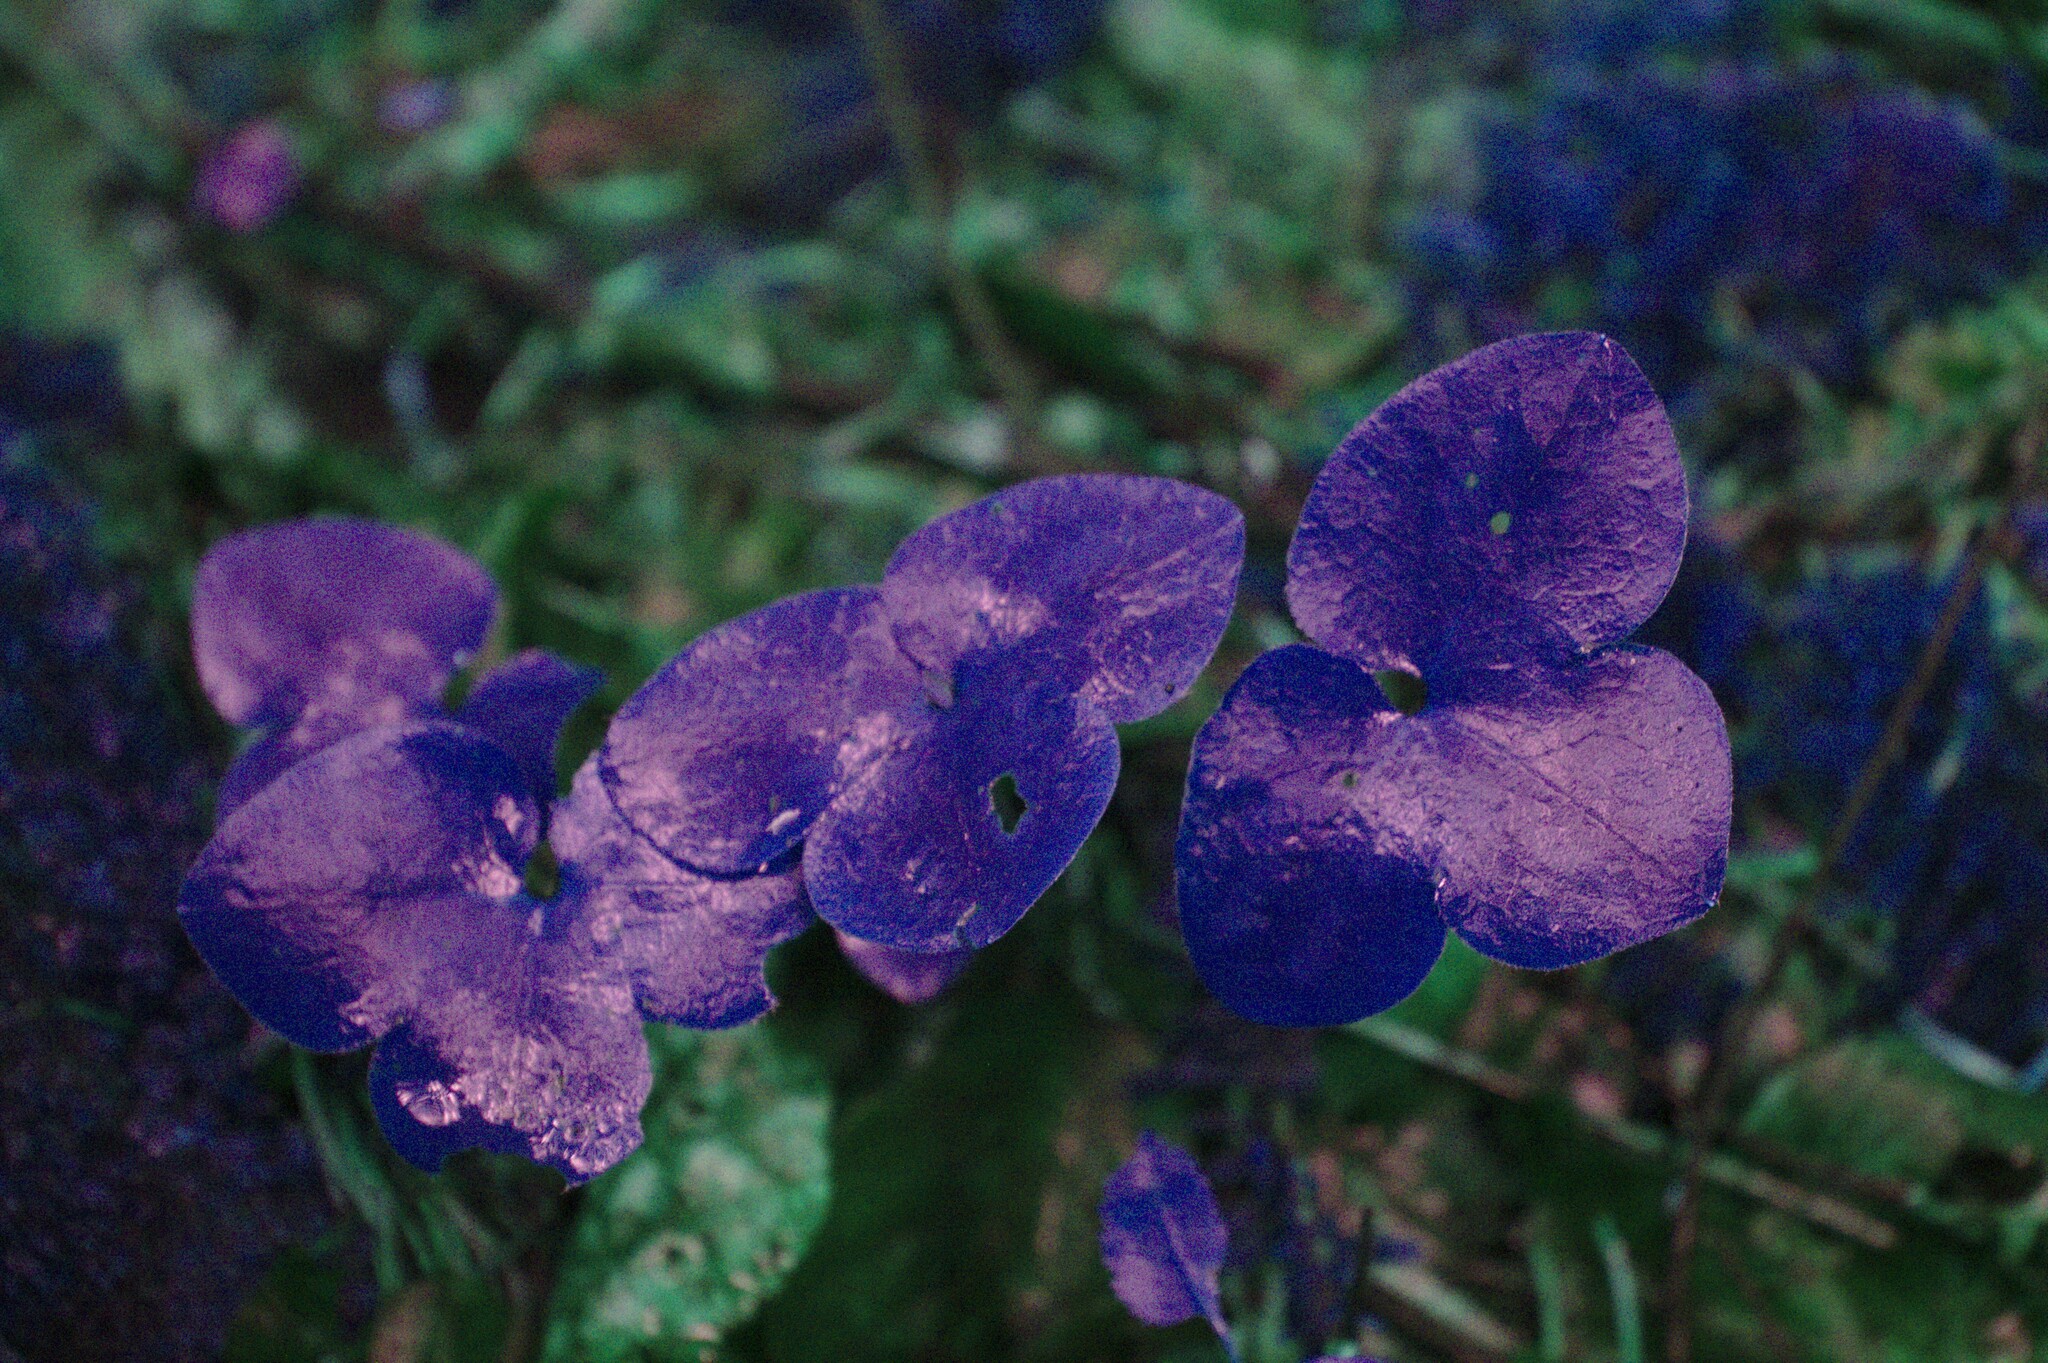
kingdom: Plantae
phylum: Tracheophyta
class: Magnoliopsida
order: Ranunculales
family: Ranunculaceae
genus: Hepatica
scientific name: Hepatica nobilis
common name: Liverleaf
